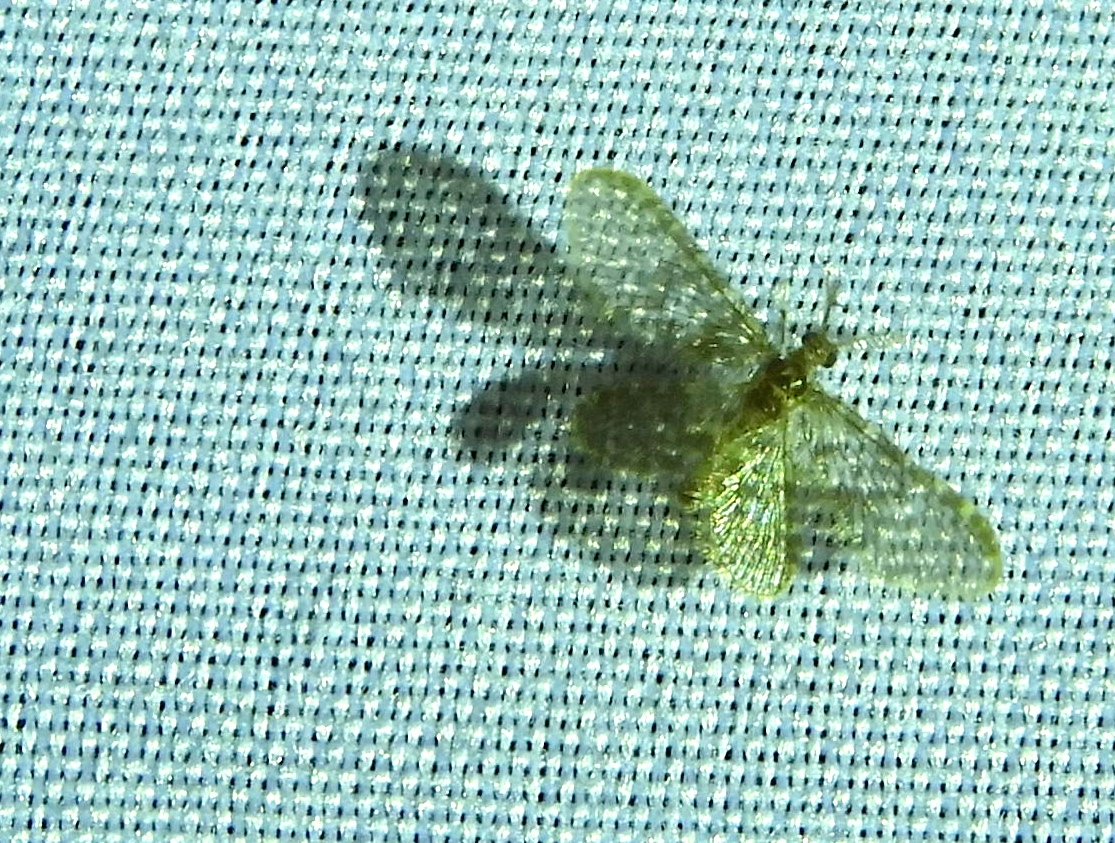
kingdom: Animalia
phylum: Arthropoda
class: Insecta
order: Neuroptera
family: Dilaridae
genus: Nallachius
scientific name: Nallachius pulchellus
